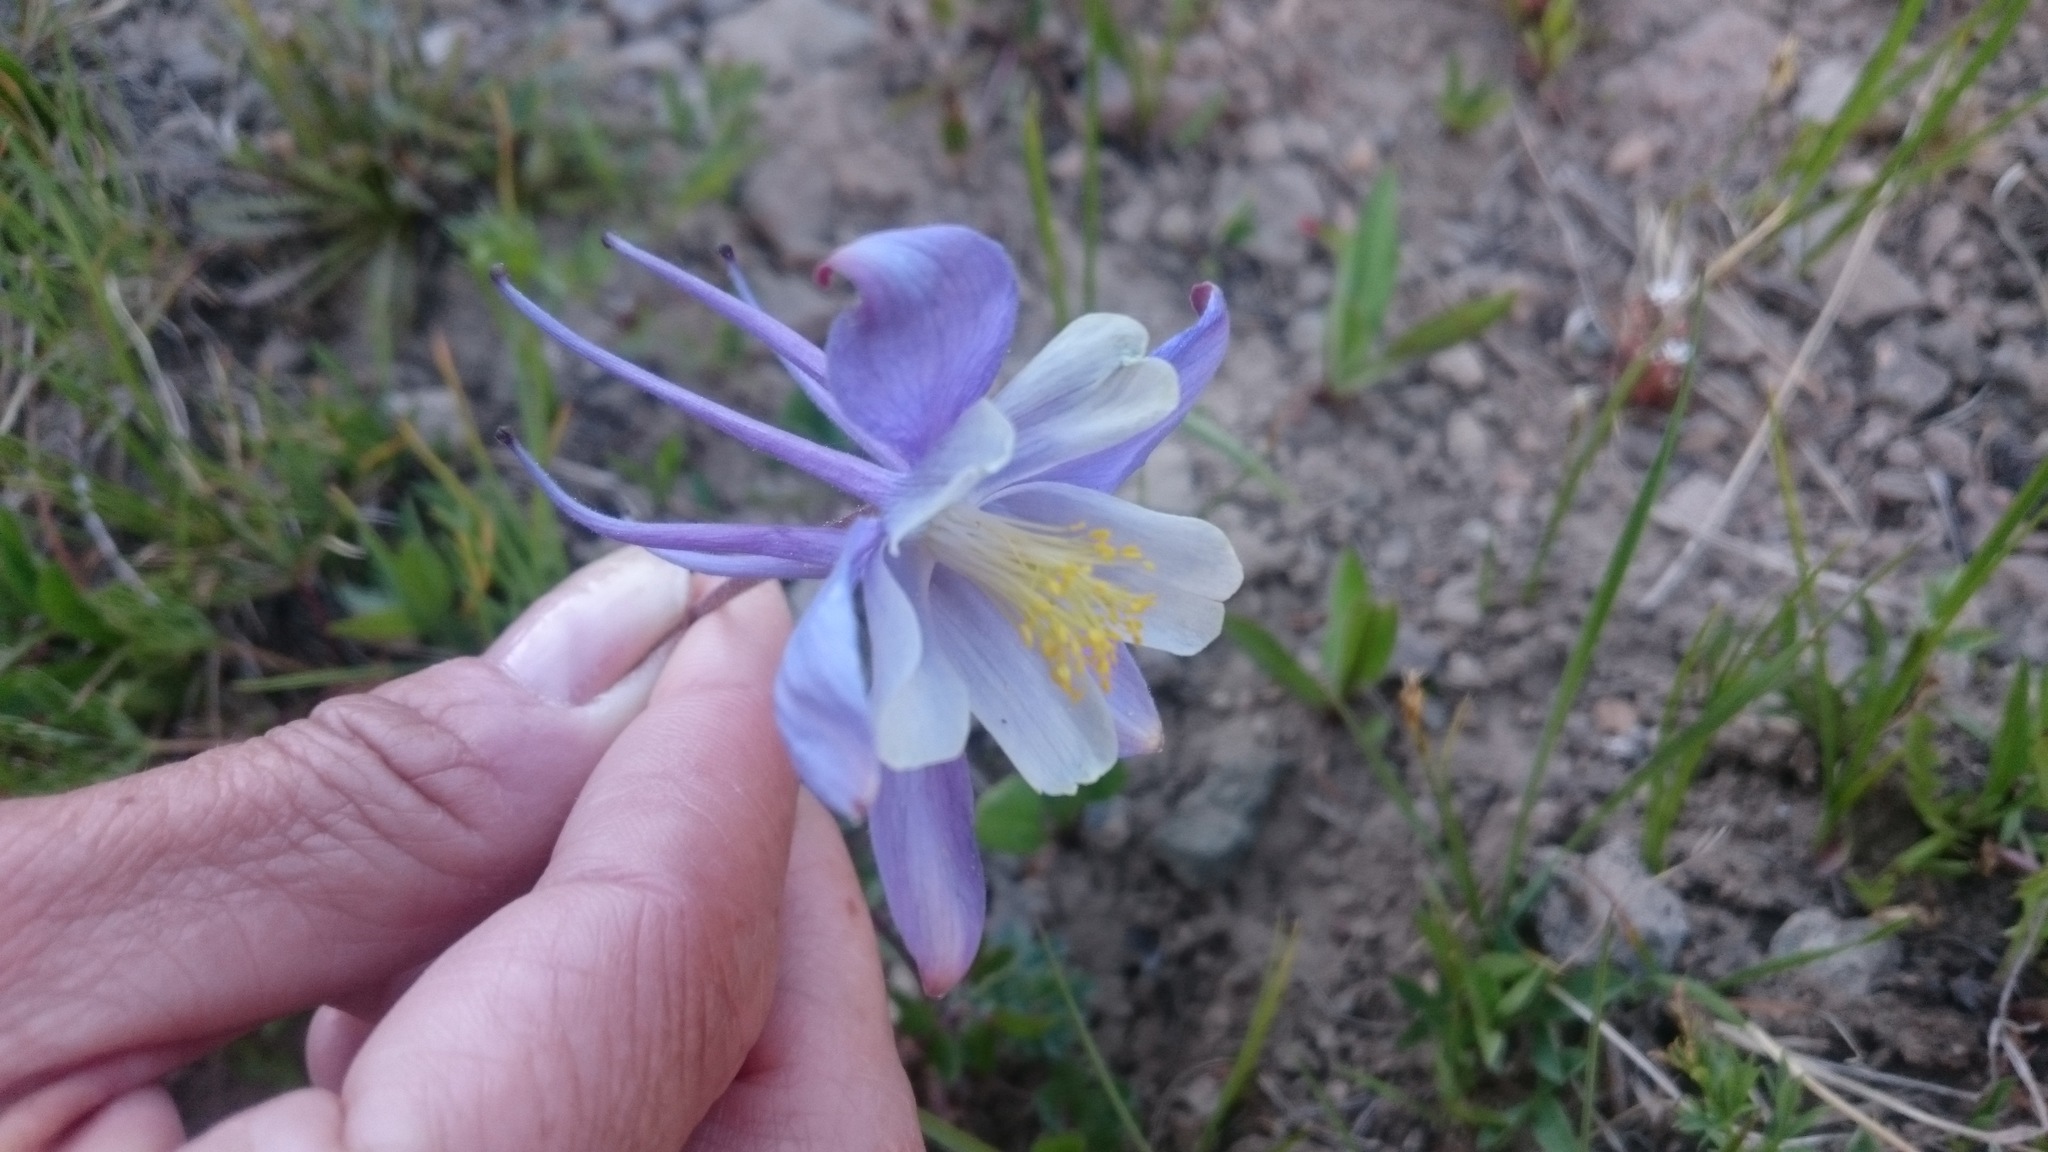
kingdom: Plantae
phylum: Tracheophyta
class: Magnoliopsida
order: Ranunculales
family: Ranunculaceae
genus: Aquilegia
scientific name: Aquilegia coerulea
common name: Rocky mountain columbine
